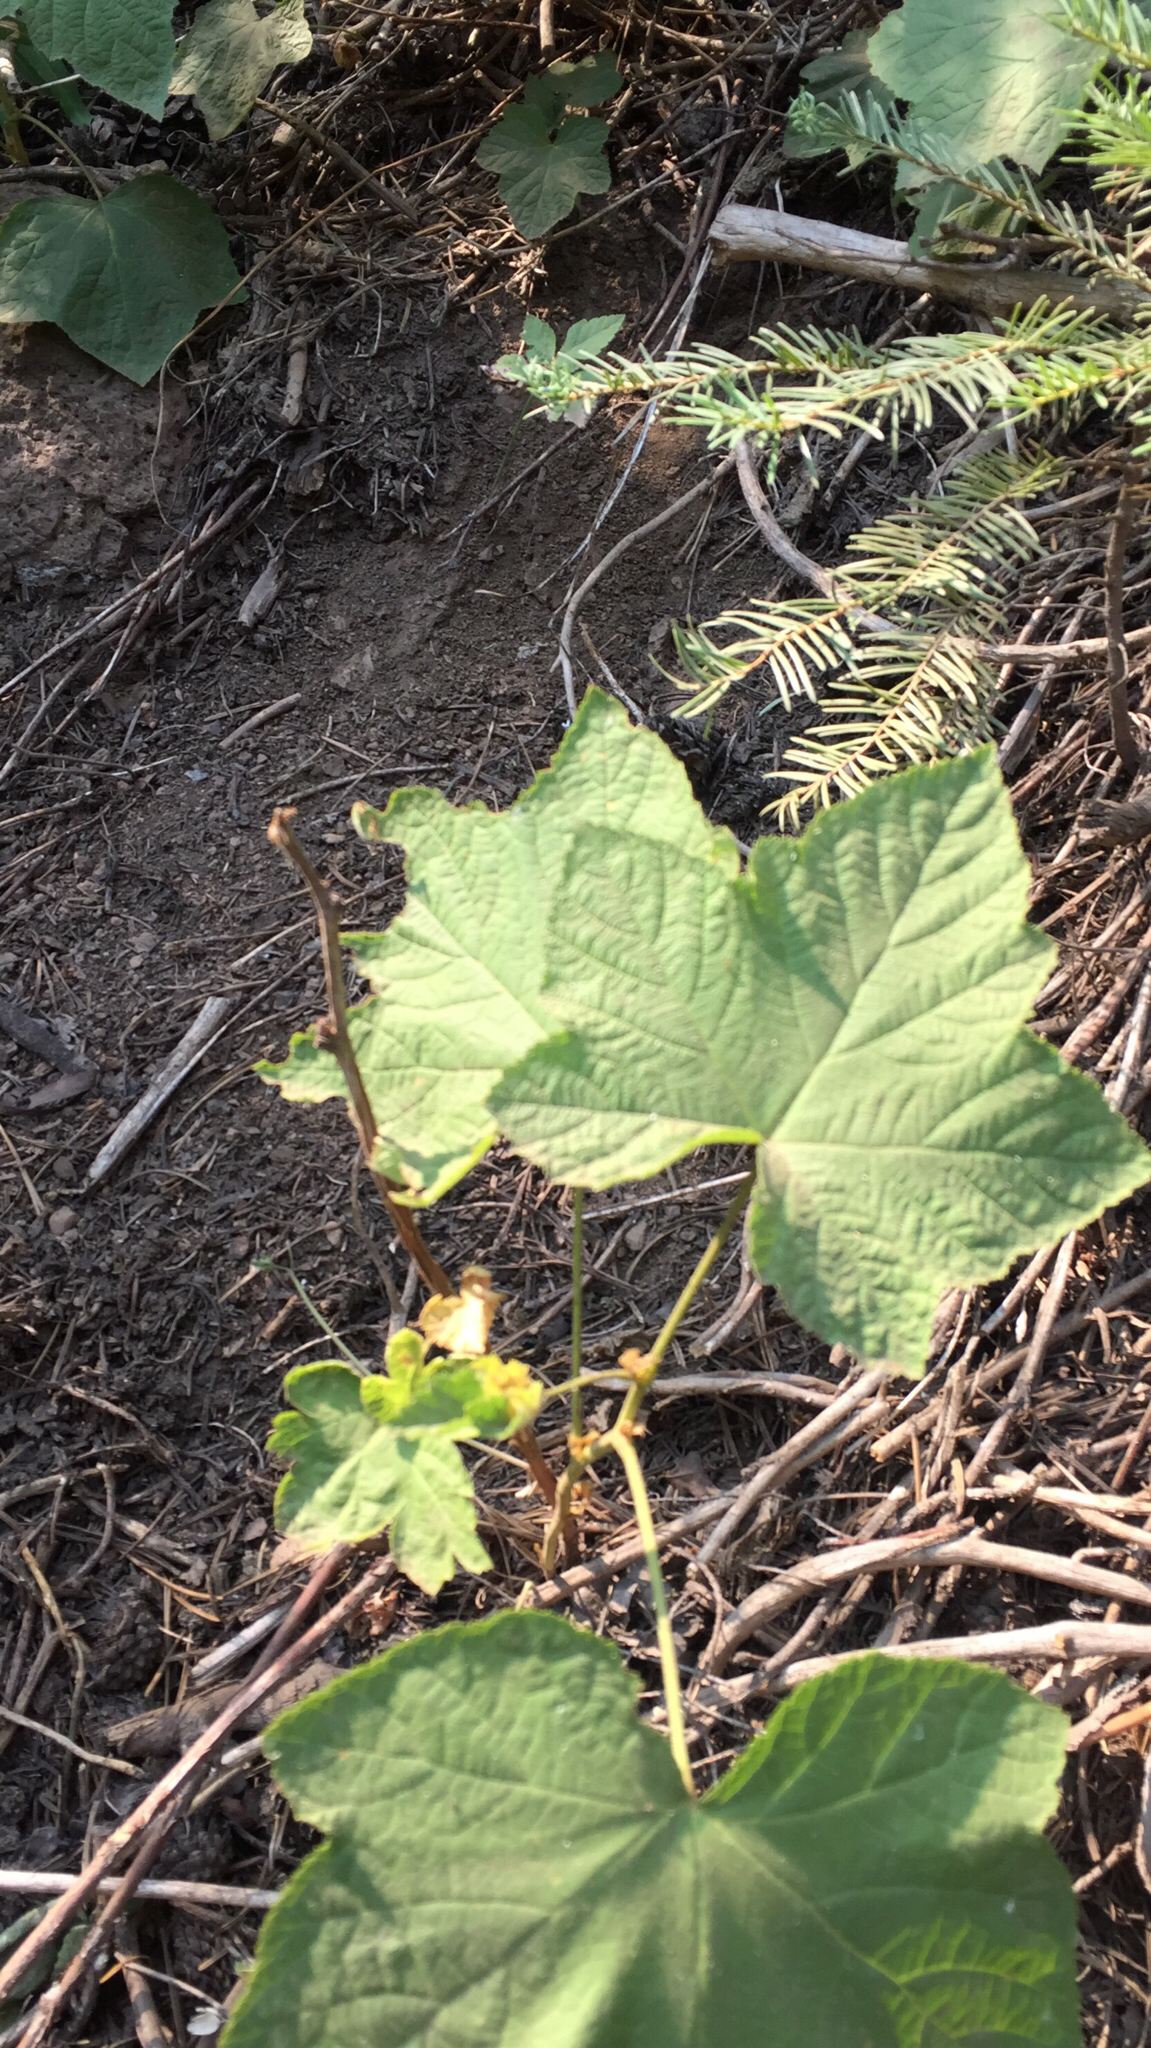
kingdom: Plantae
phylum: Tracheophyta
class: Magnoliopsida
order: Rosales
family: Rosaceae
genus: Rubus
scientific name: Rubus parviflorus
